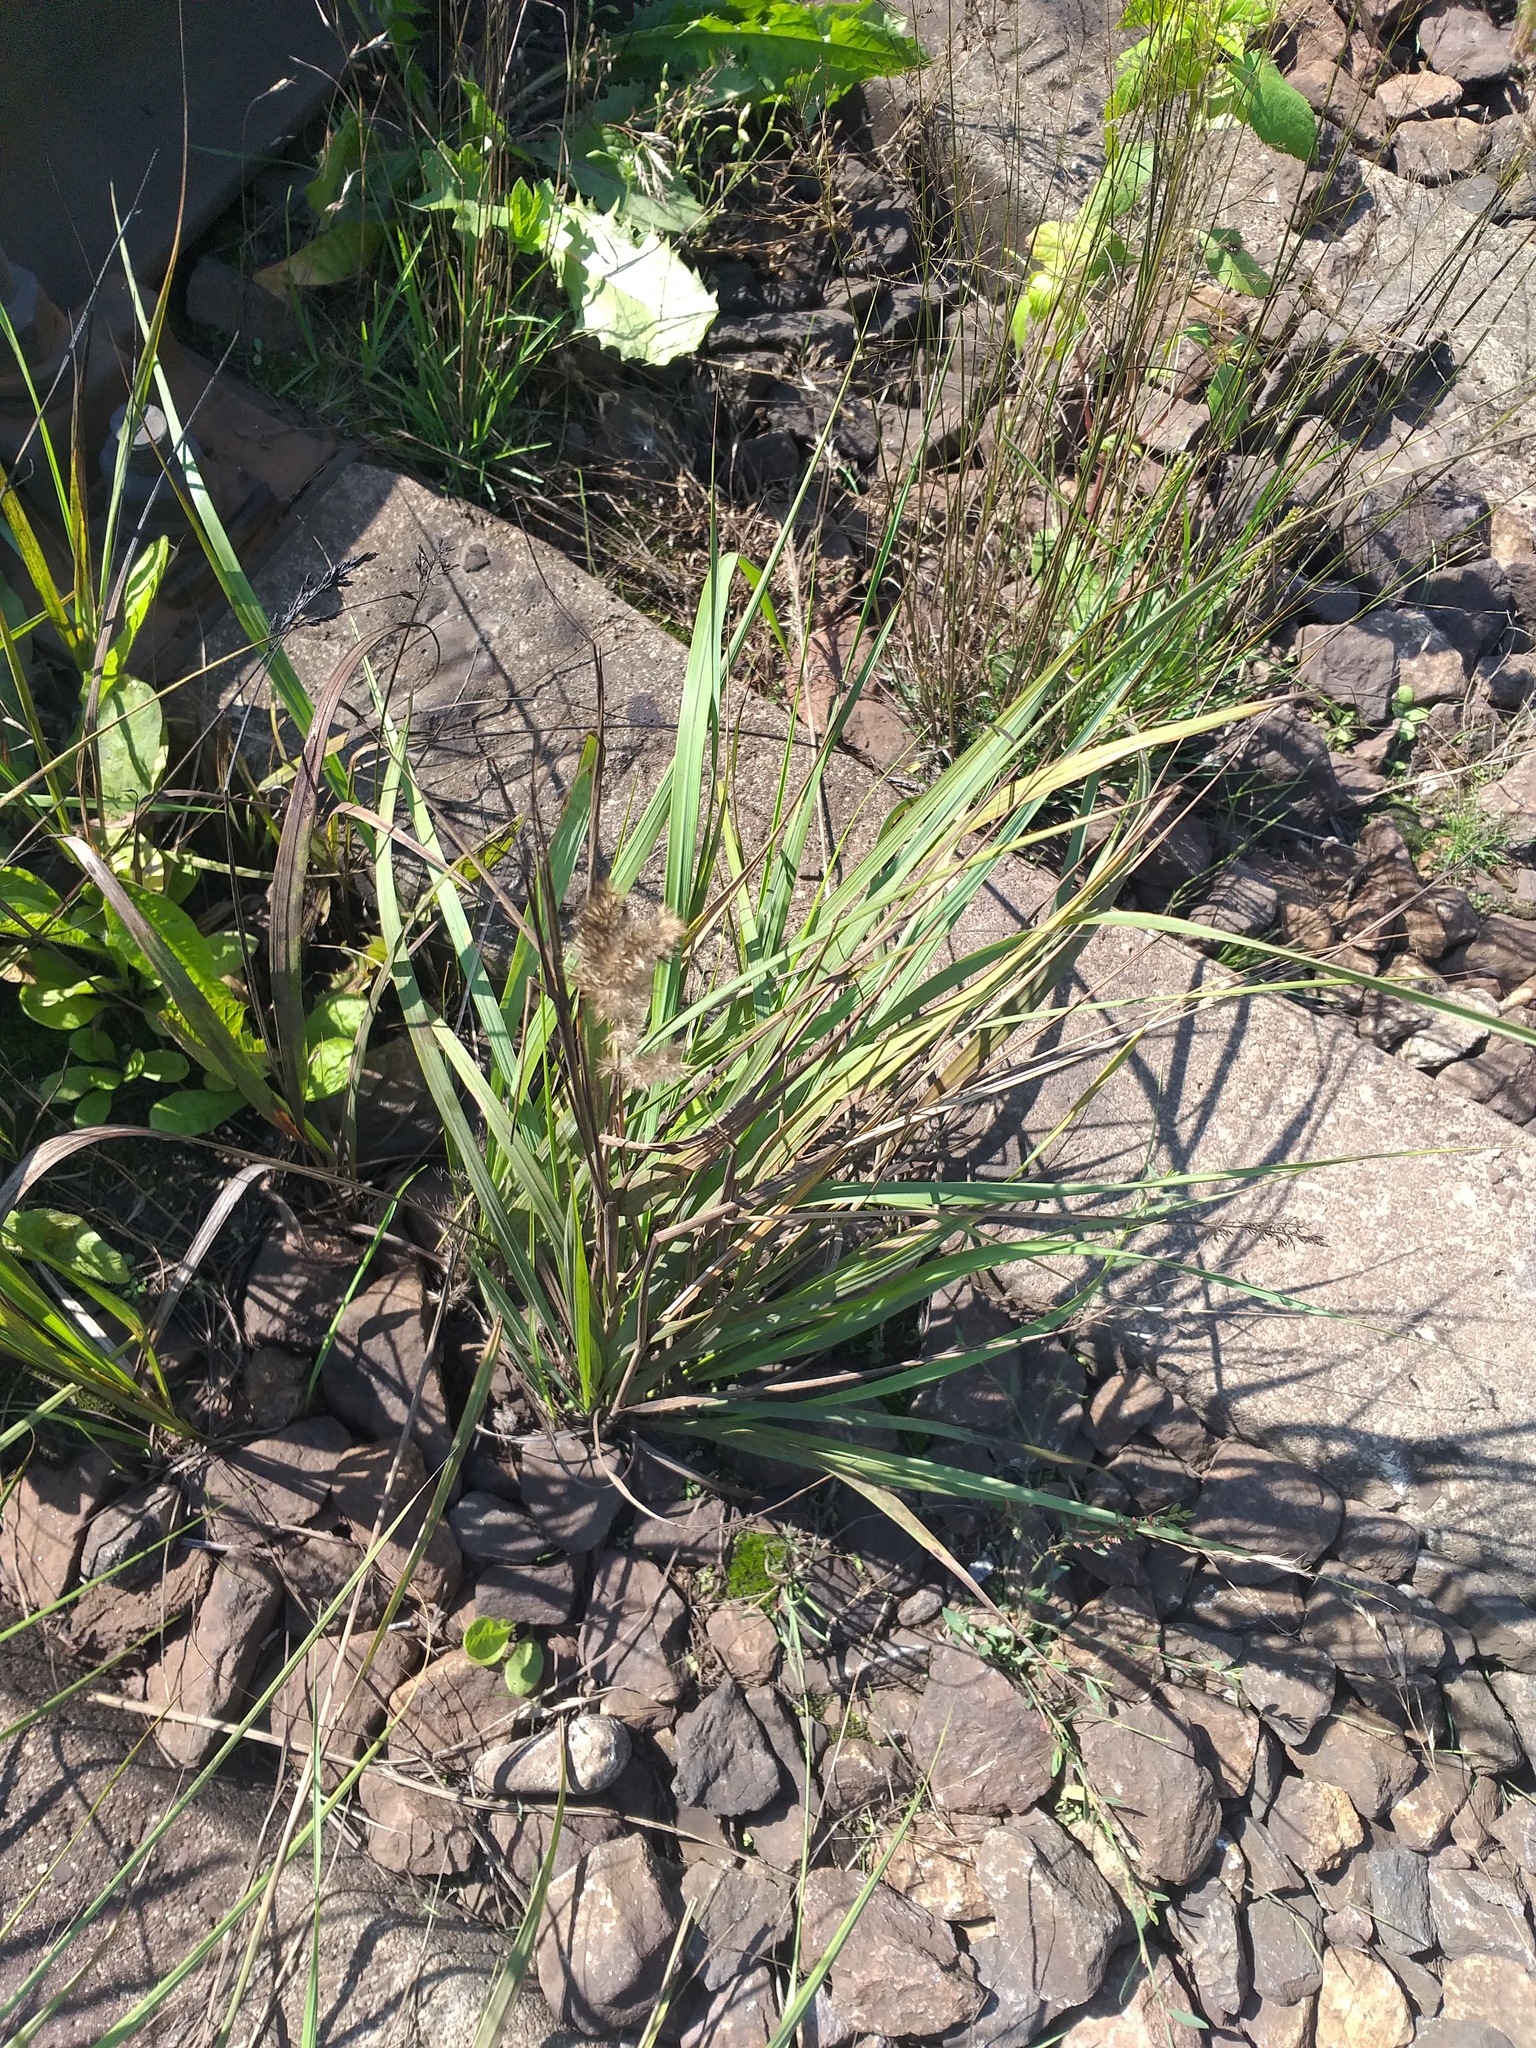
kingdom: Plantae
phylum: Tracheophyta
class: Liliopsida
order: Poales
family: Poaceae
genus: Calamagrostis
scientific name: Calamagrostis epigejos
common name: Wood small-reed
